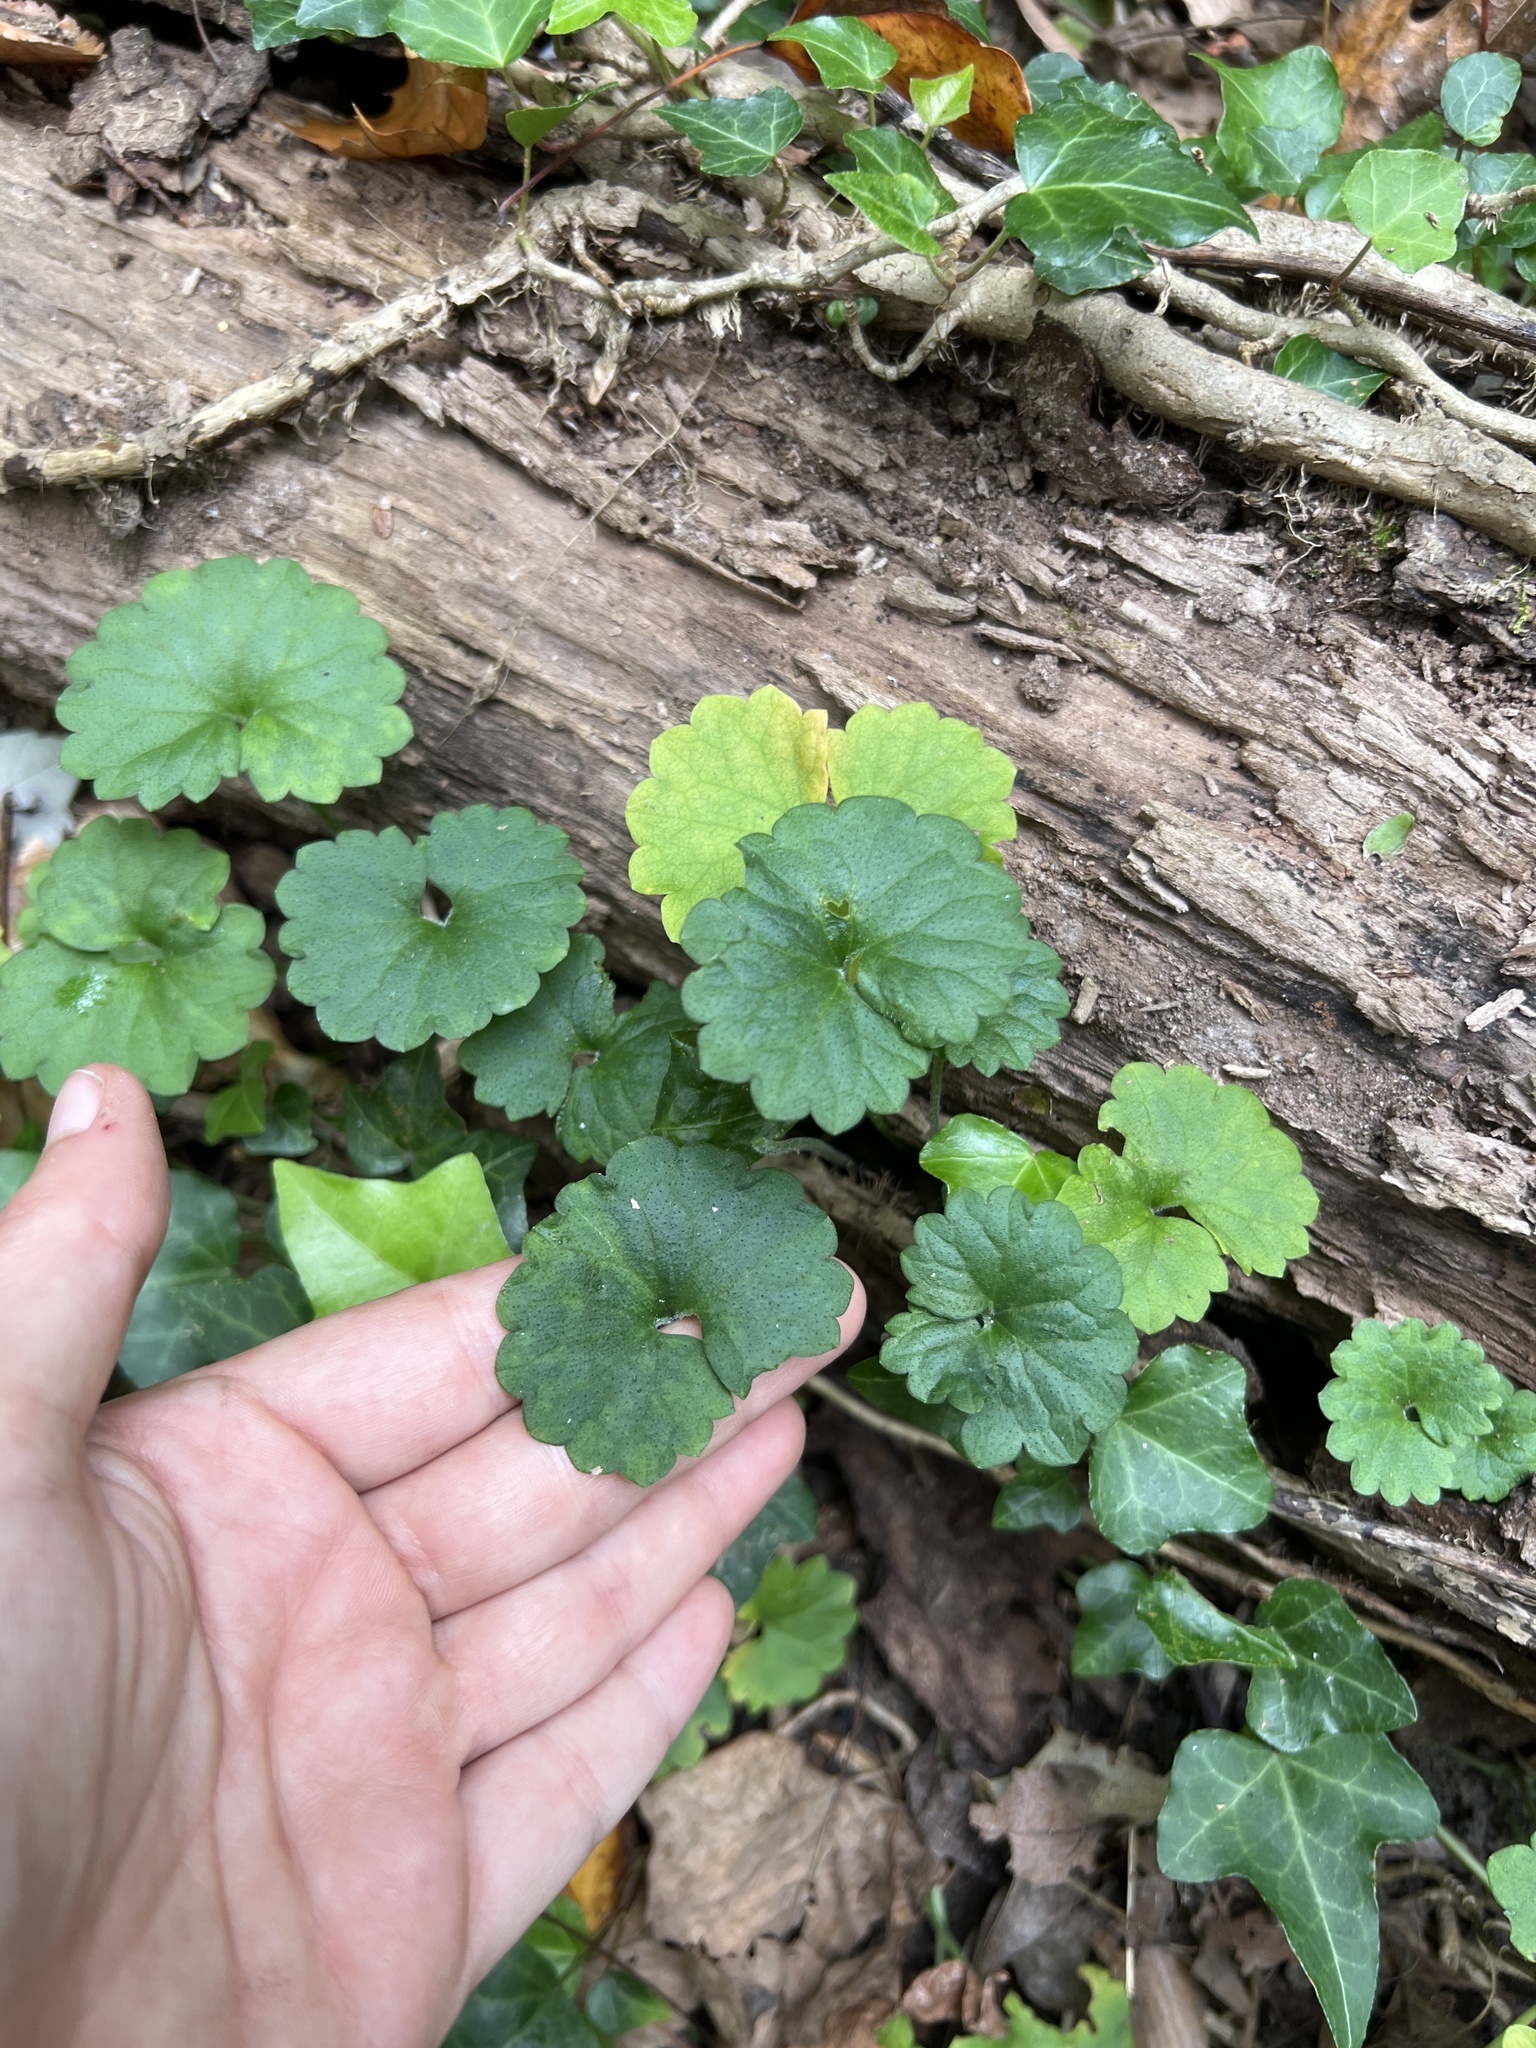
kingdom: Plantae
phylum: Tracheophyta
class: Magnoliopsida
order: Lamiales
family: Lamiaceae
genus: Glechoma
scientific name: Glechoma hederacea
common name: Ground ivy
